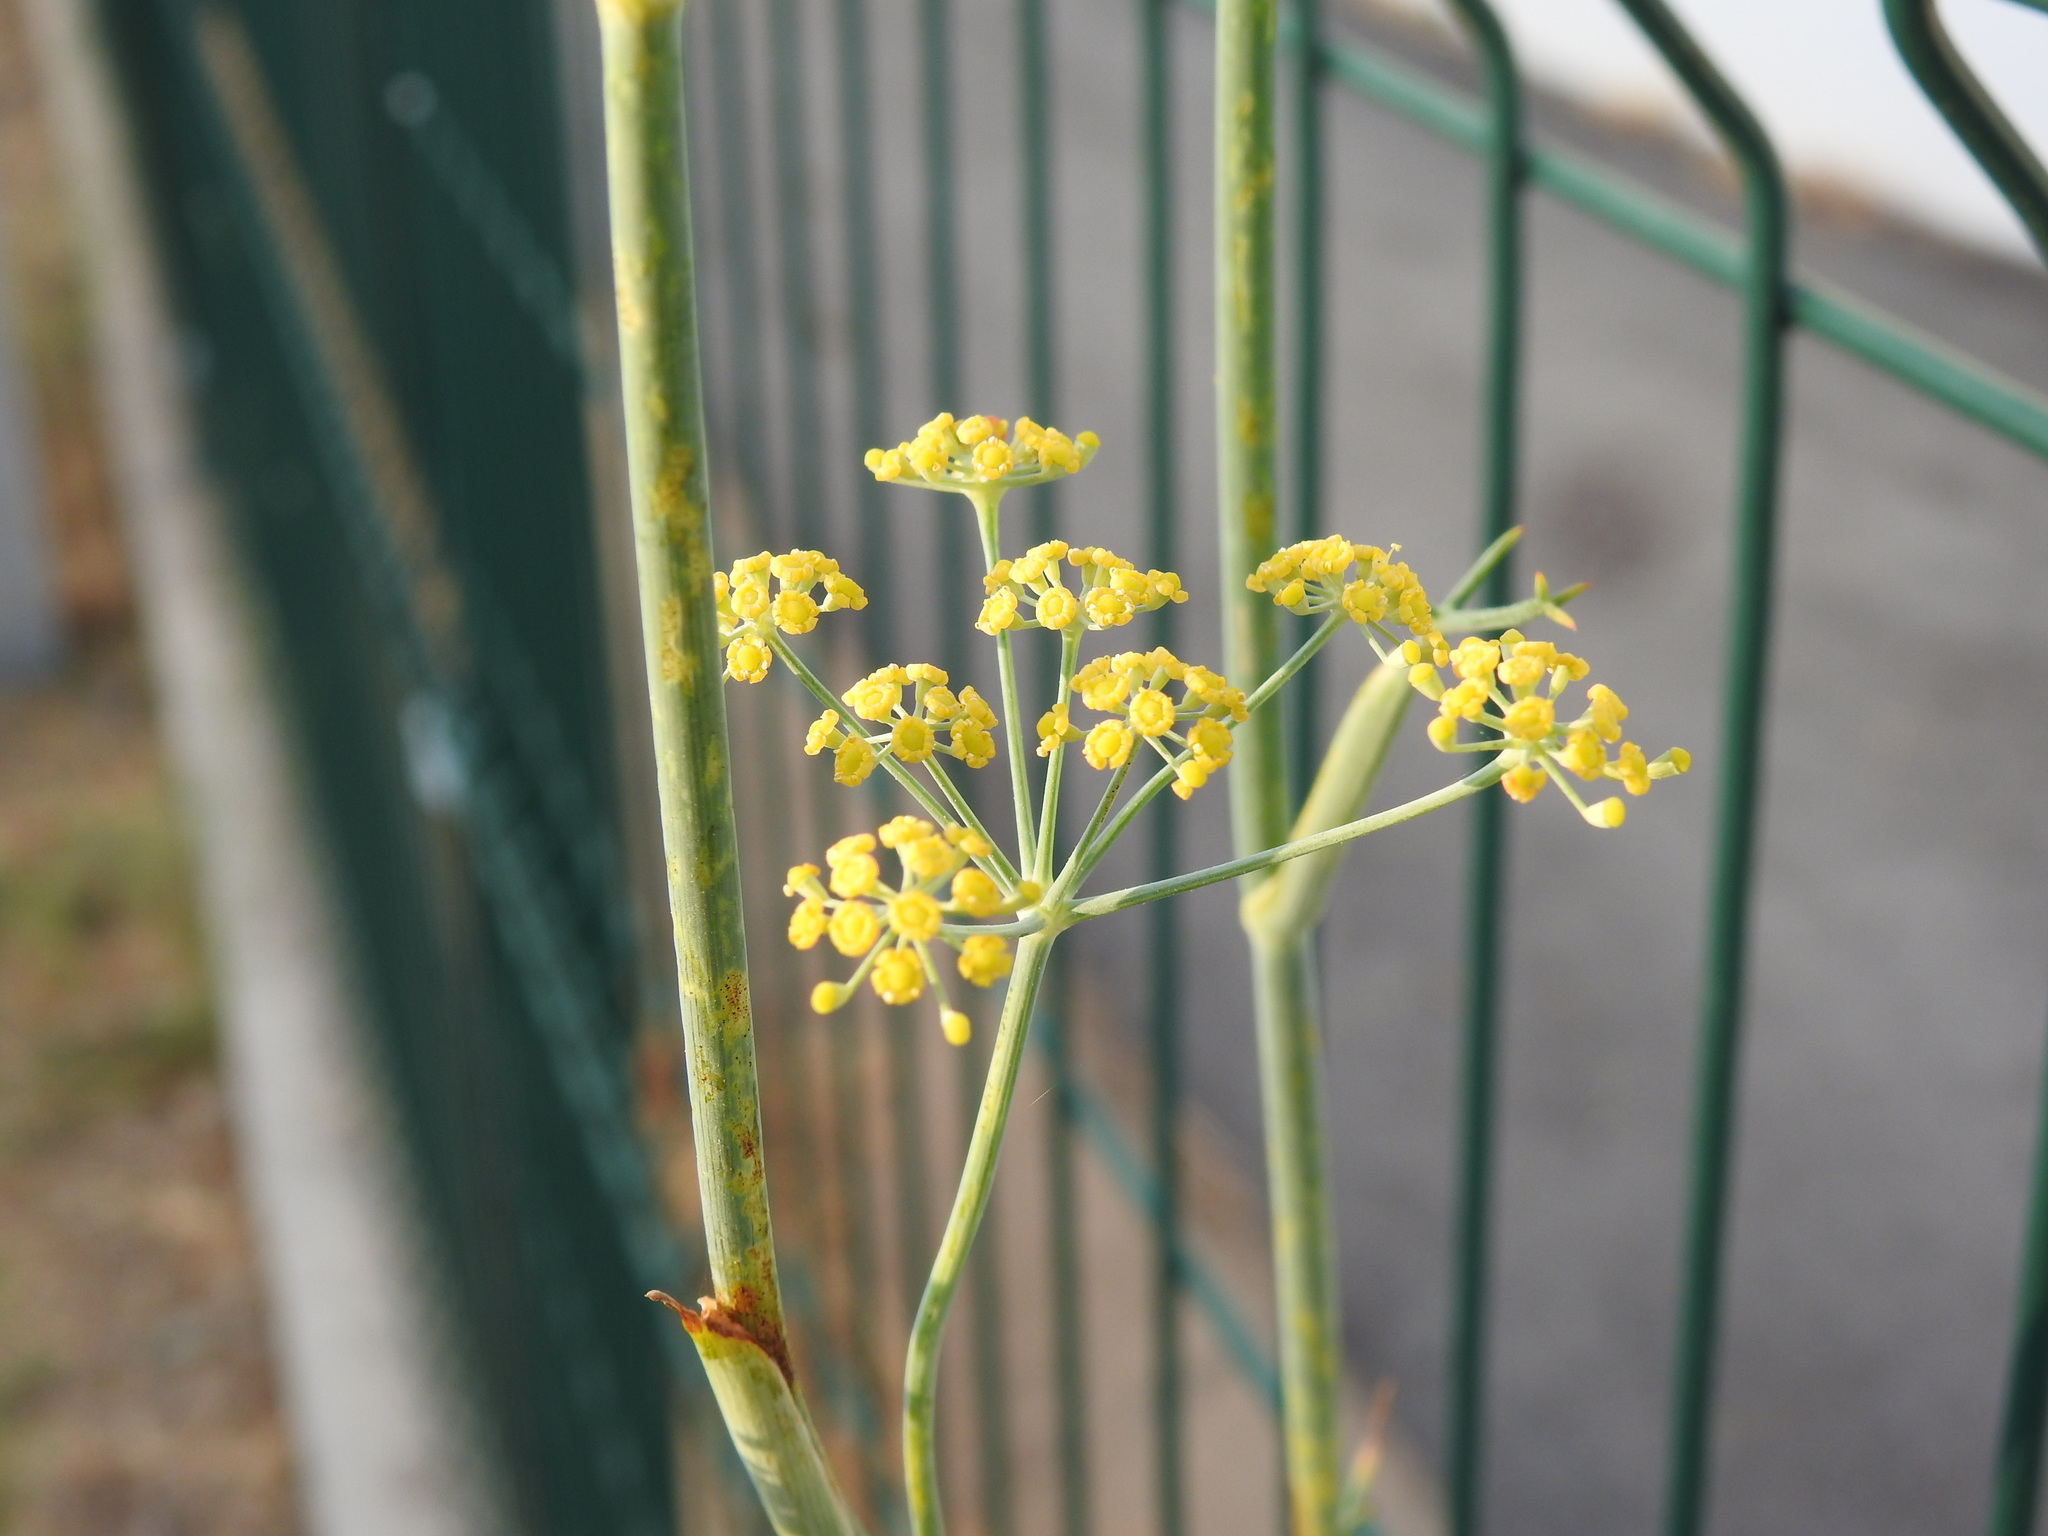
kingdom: Plantae
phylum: Tracheophyta
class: Magnoliopsida
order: Apiales
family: Apiaceae
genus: Foeniculum
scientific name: Foeniculum vulgare
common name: Fennel
